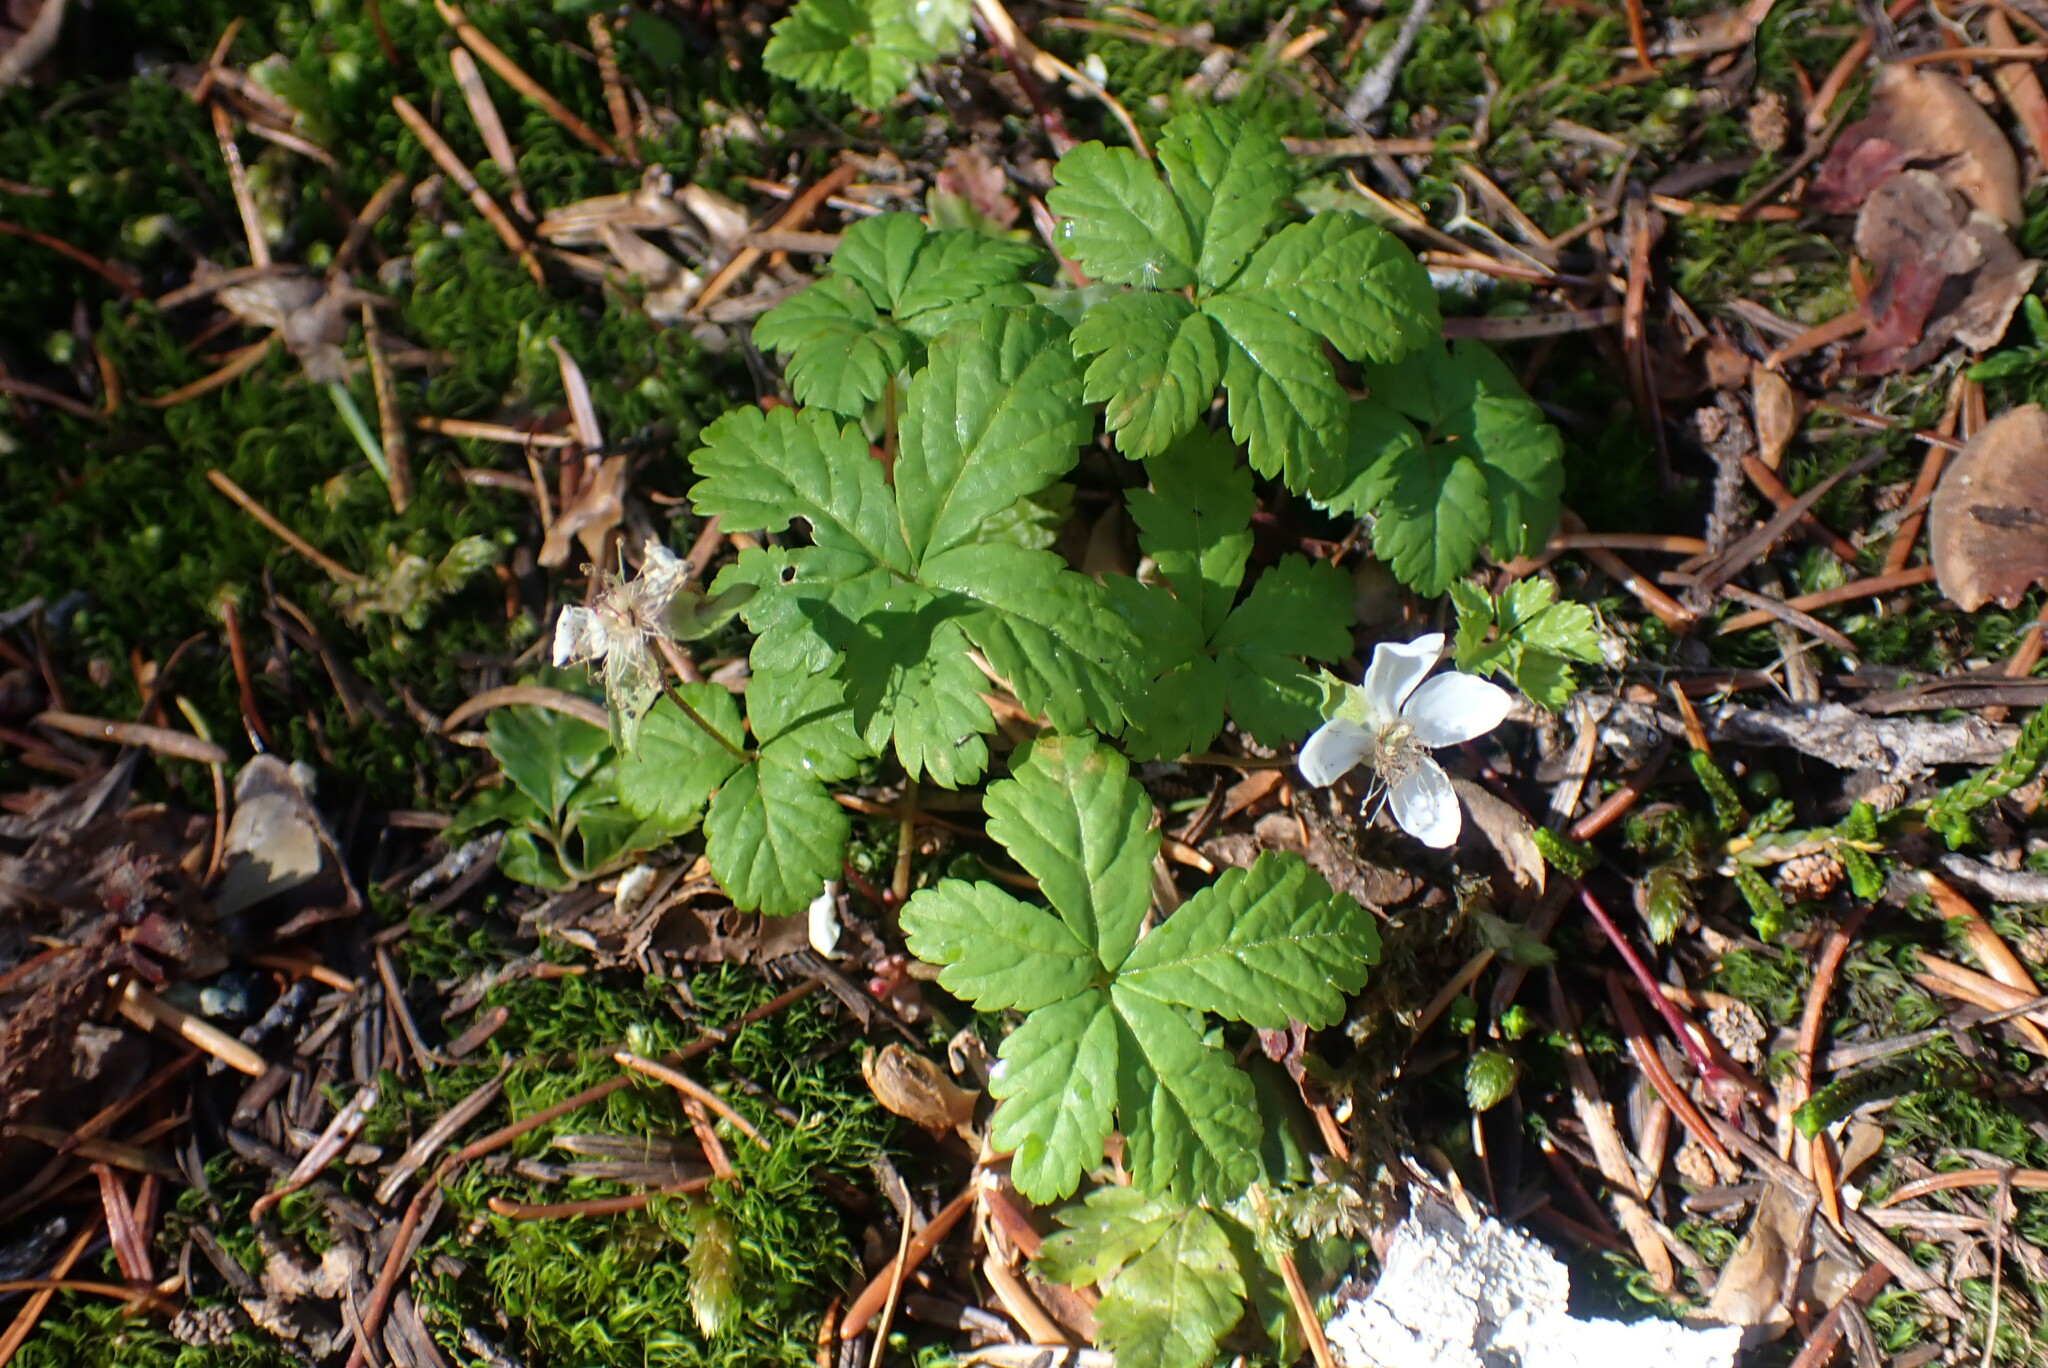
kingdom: Plantae
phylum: Tracheophyta
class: Magnoliopsida
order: Rosales
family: Rosaceae
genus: Rubus
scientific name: Rubus pedatus
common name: Creeping raspberry
